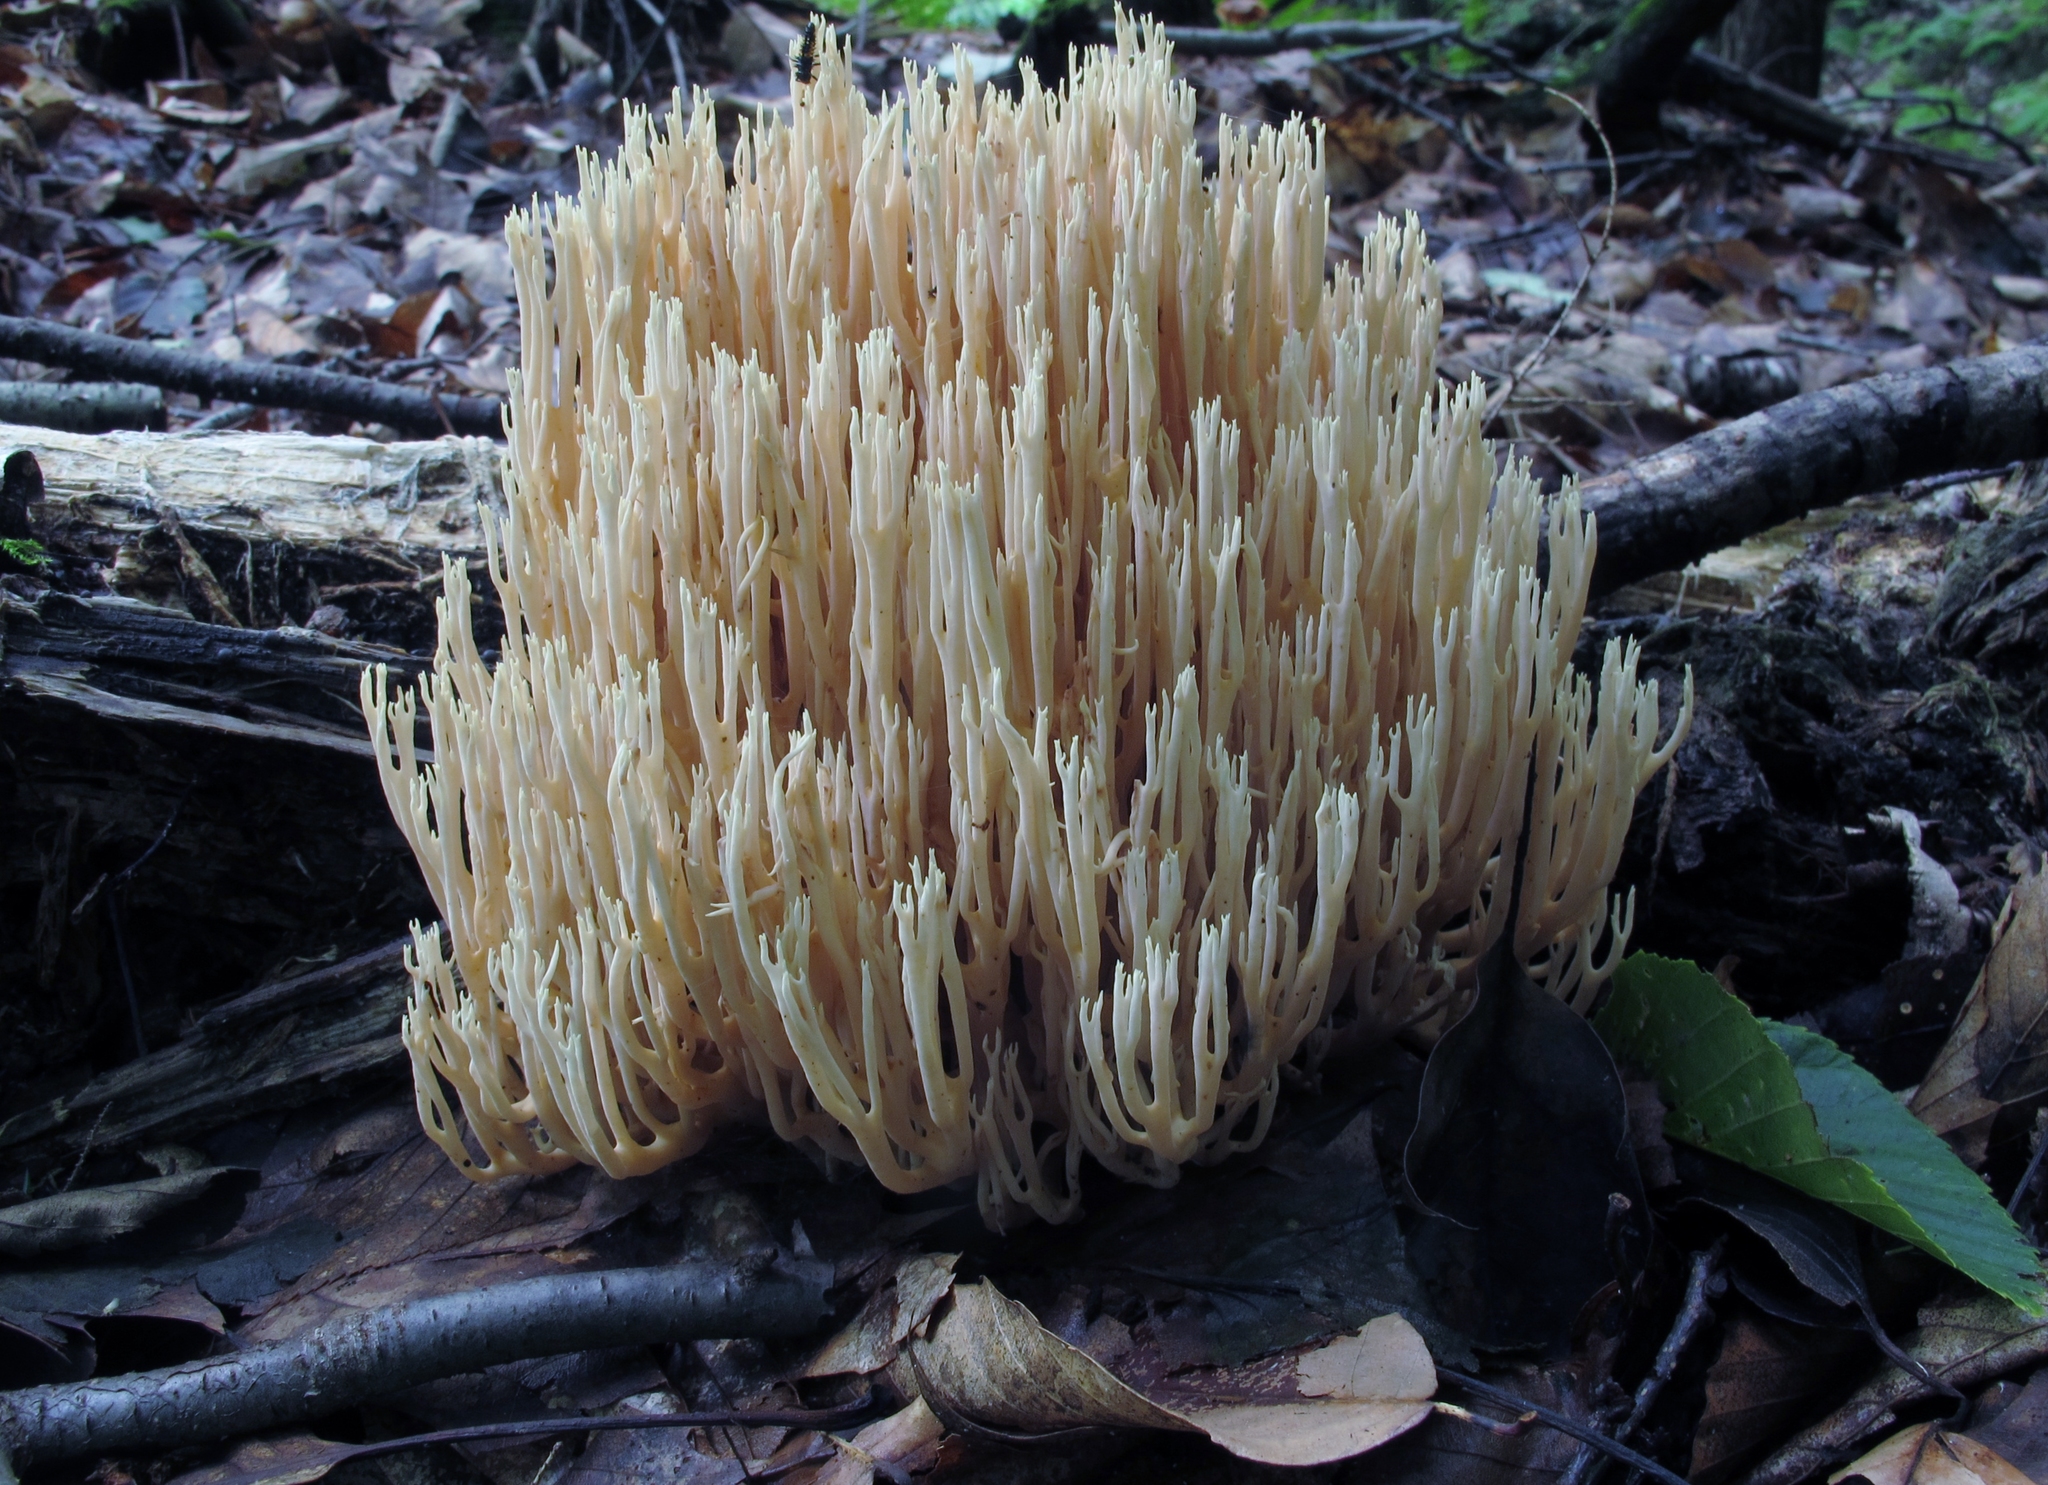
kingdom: Fungi
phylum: Basidiomycota
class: Agaricomycetes
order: Gomphales
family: Gomphaceae
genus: Ramaria
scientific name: Ramaria stricta
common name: Upright coral
